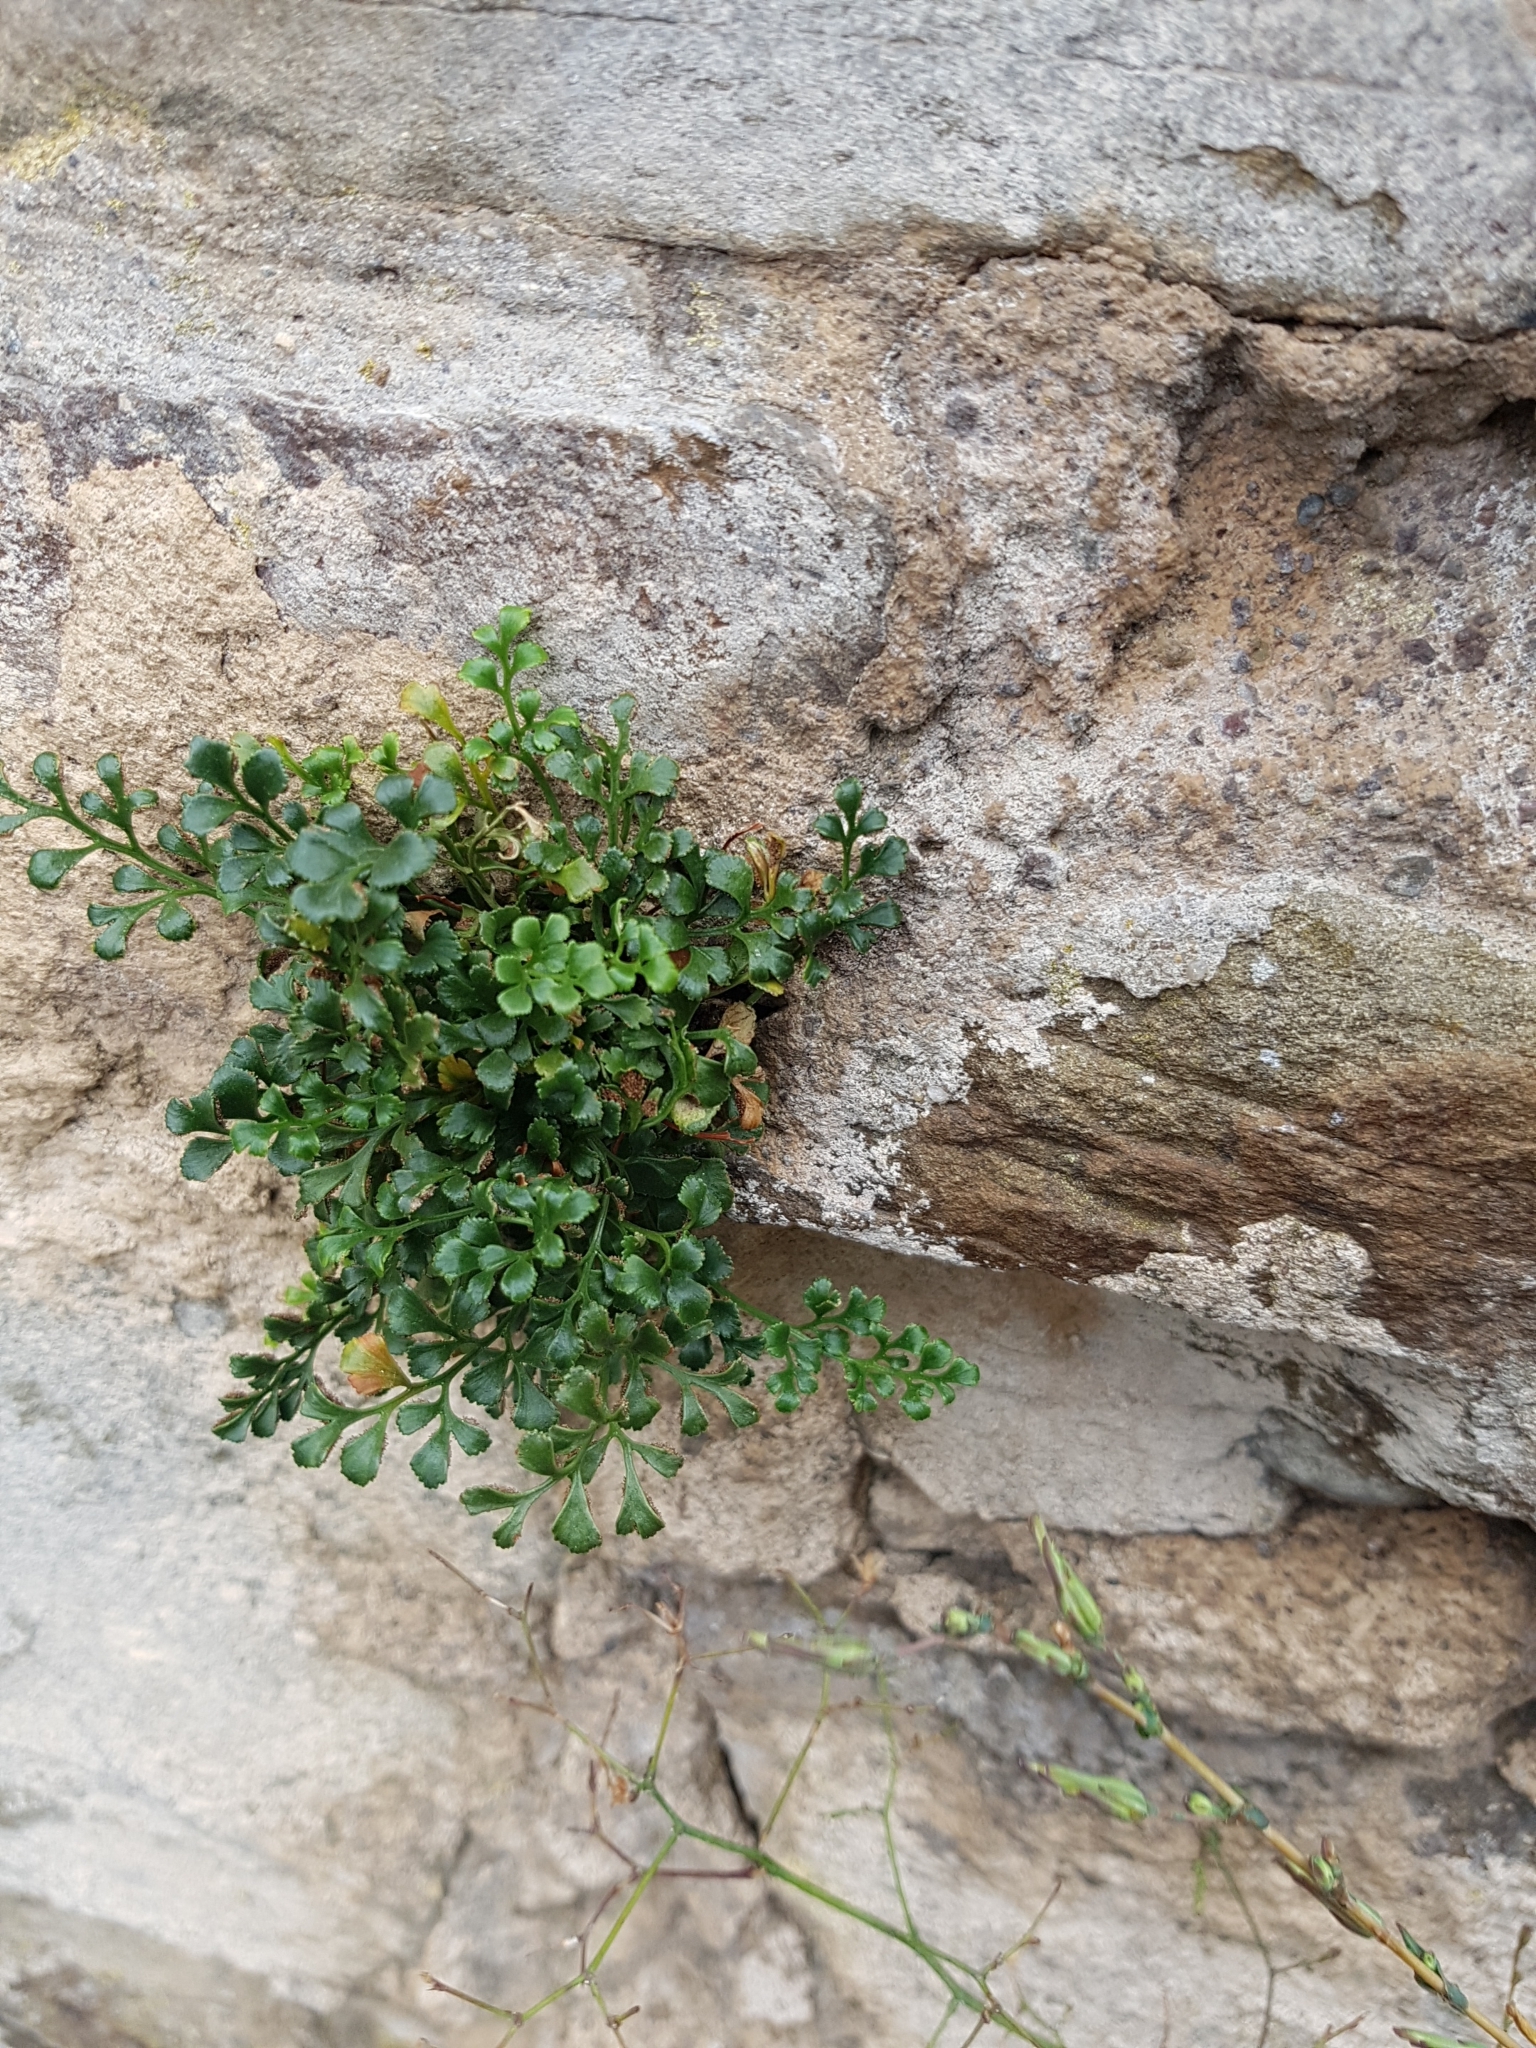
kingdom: Plantae
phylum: Tracheophyta
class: Polypodiopsida
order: Polypodiales
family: Aspleniaceae
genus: Asplenium
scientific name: Asplenium ruta-muraria
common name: Wall-rue
